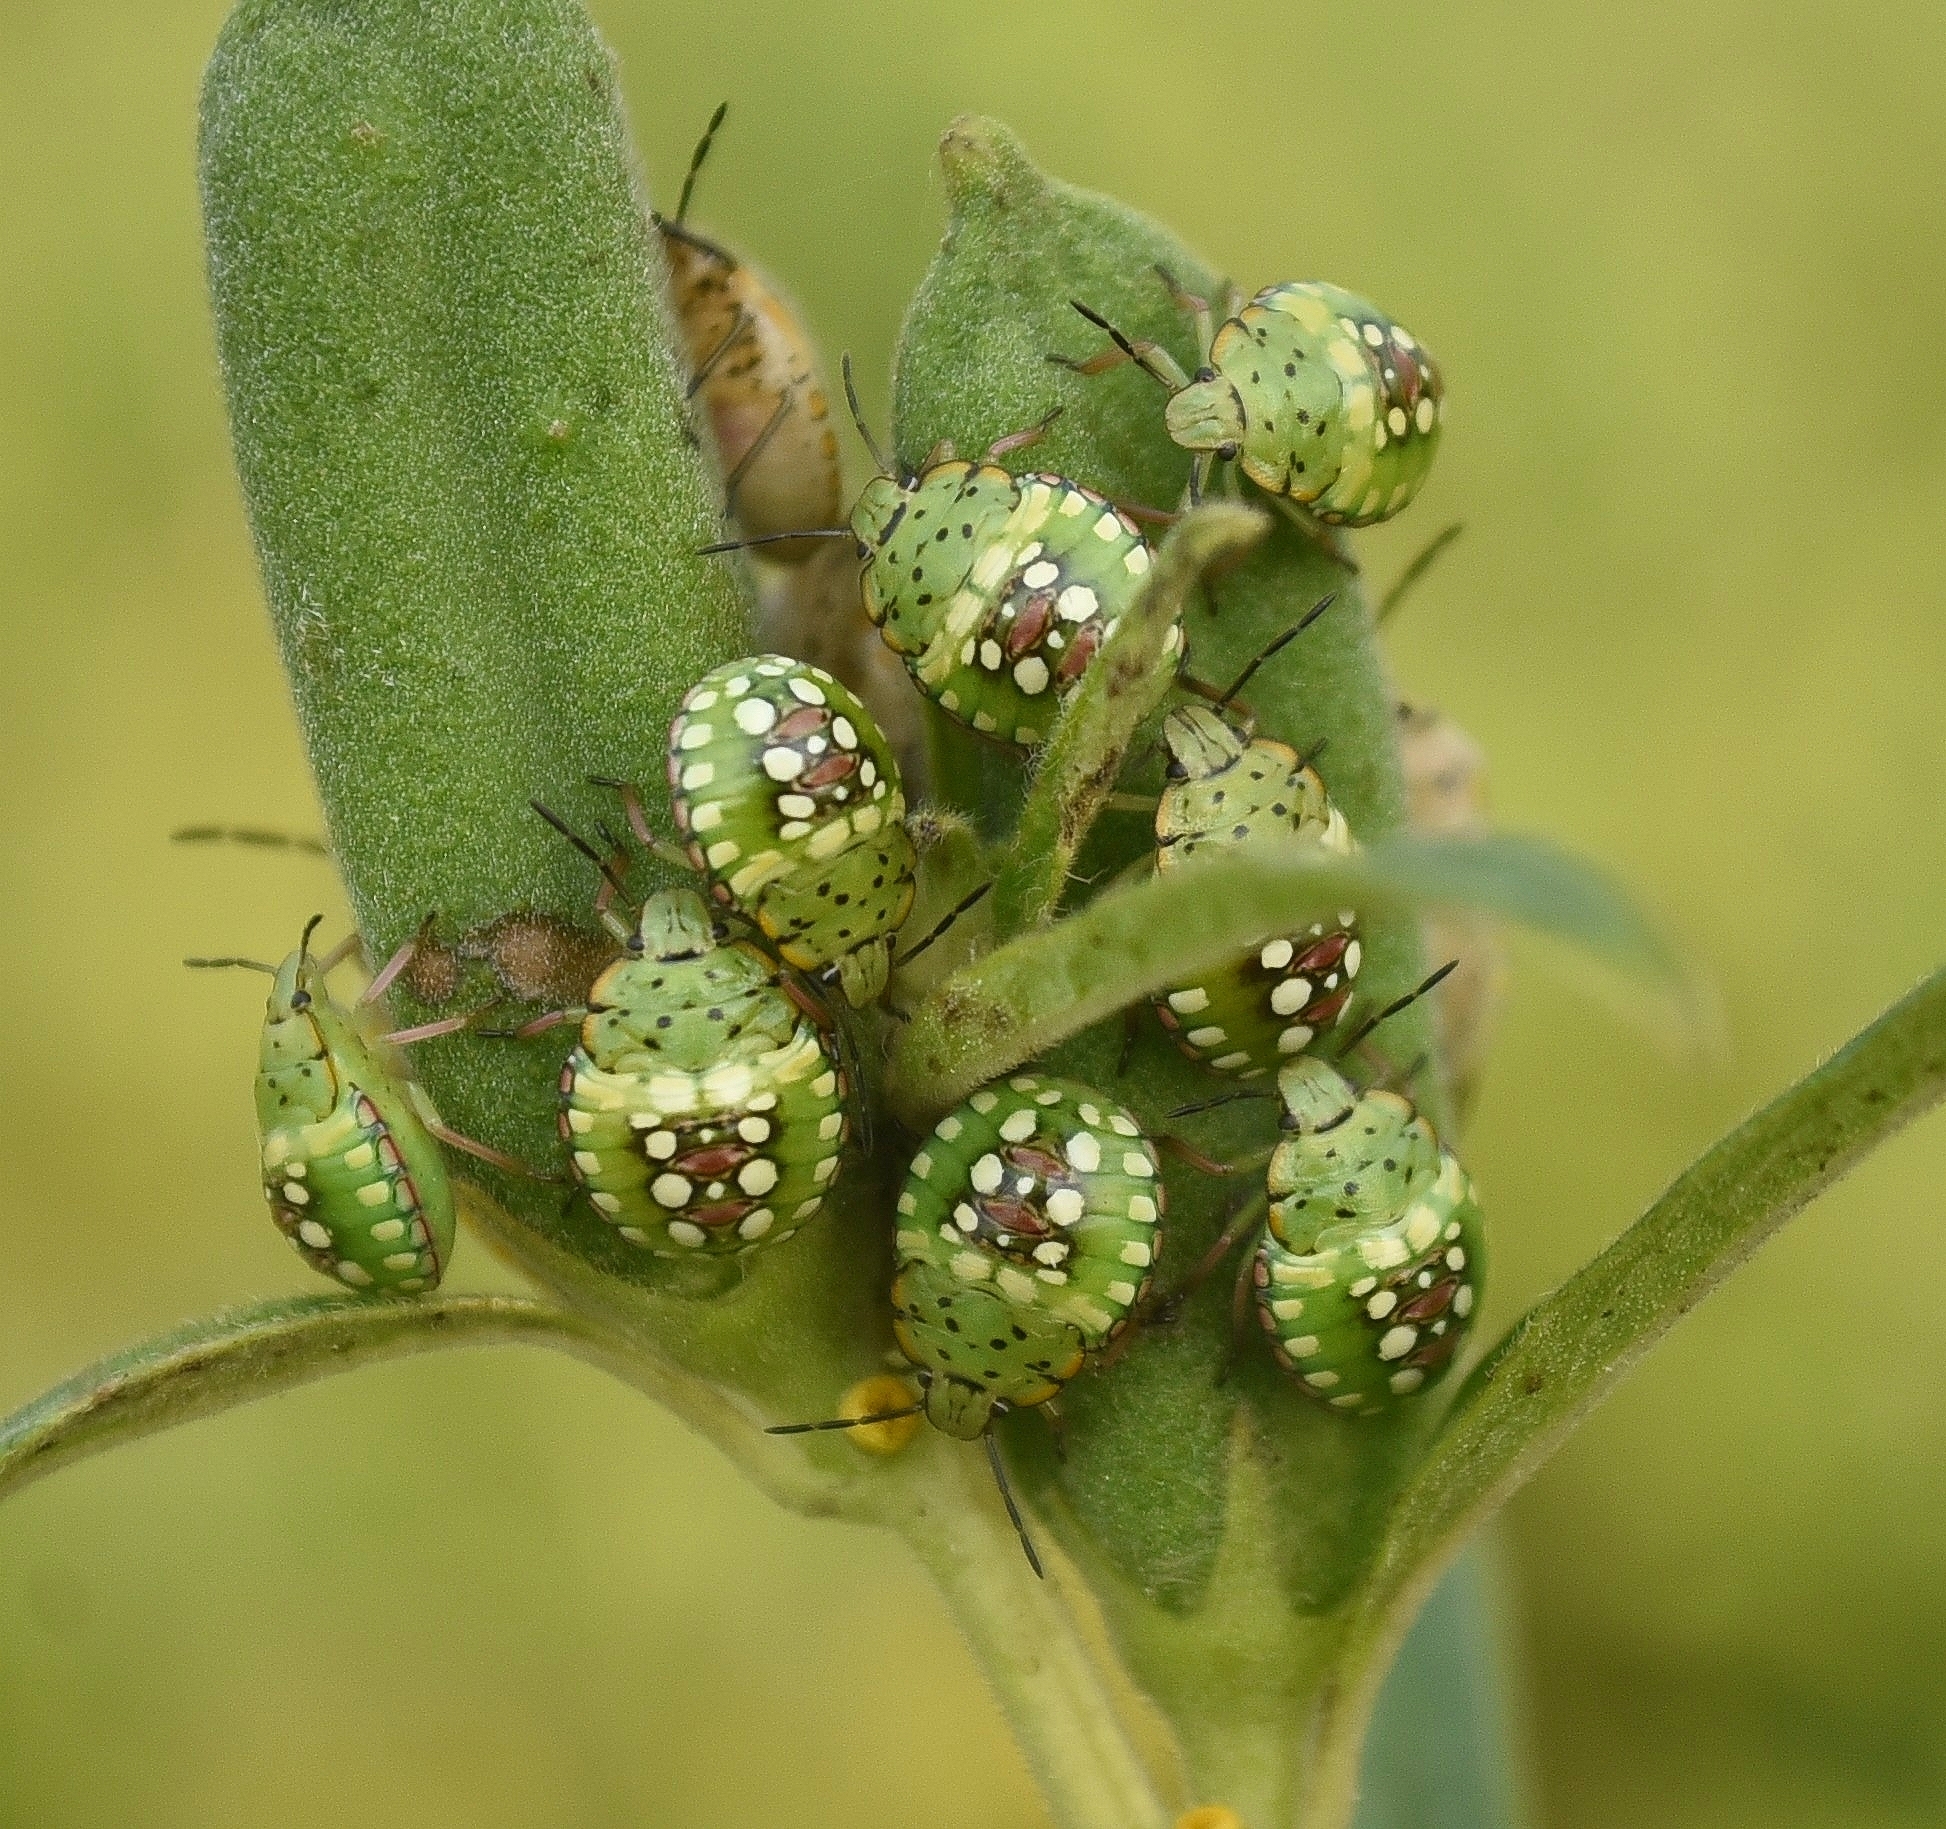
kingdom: Animalia
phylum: Arthropoda
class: Insecta
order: Hemiptera
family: Pentatomidae
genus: Nezara
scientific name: Nezara viridula
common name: Southern green stink bug
